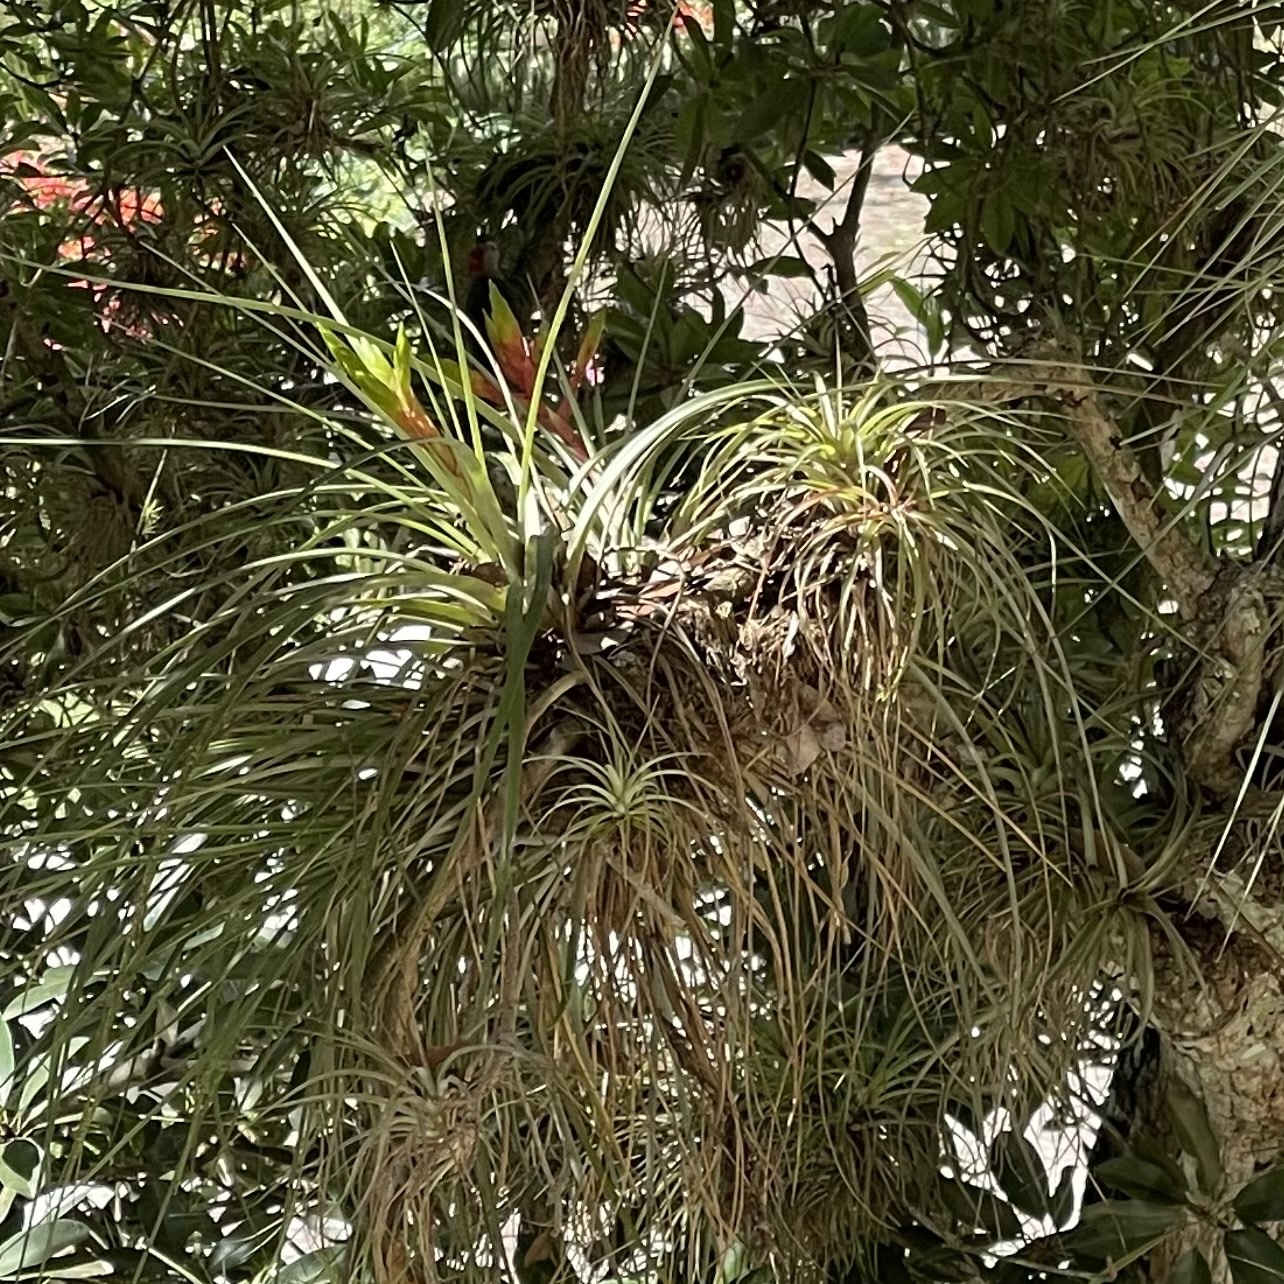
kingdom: Plantae
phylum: Tracheophyta
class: Liliopsida
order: Poales
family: Bromeliaceae
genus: Tillandsia
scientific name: Tillandsia fasciculata
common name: Giant airplant
